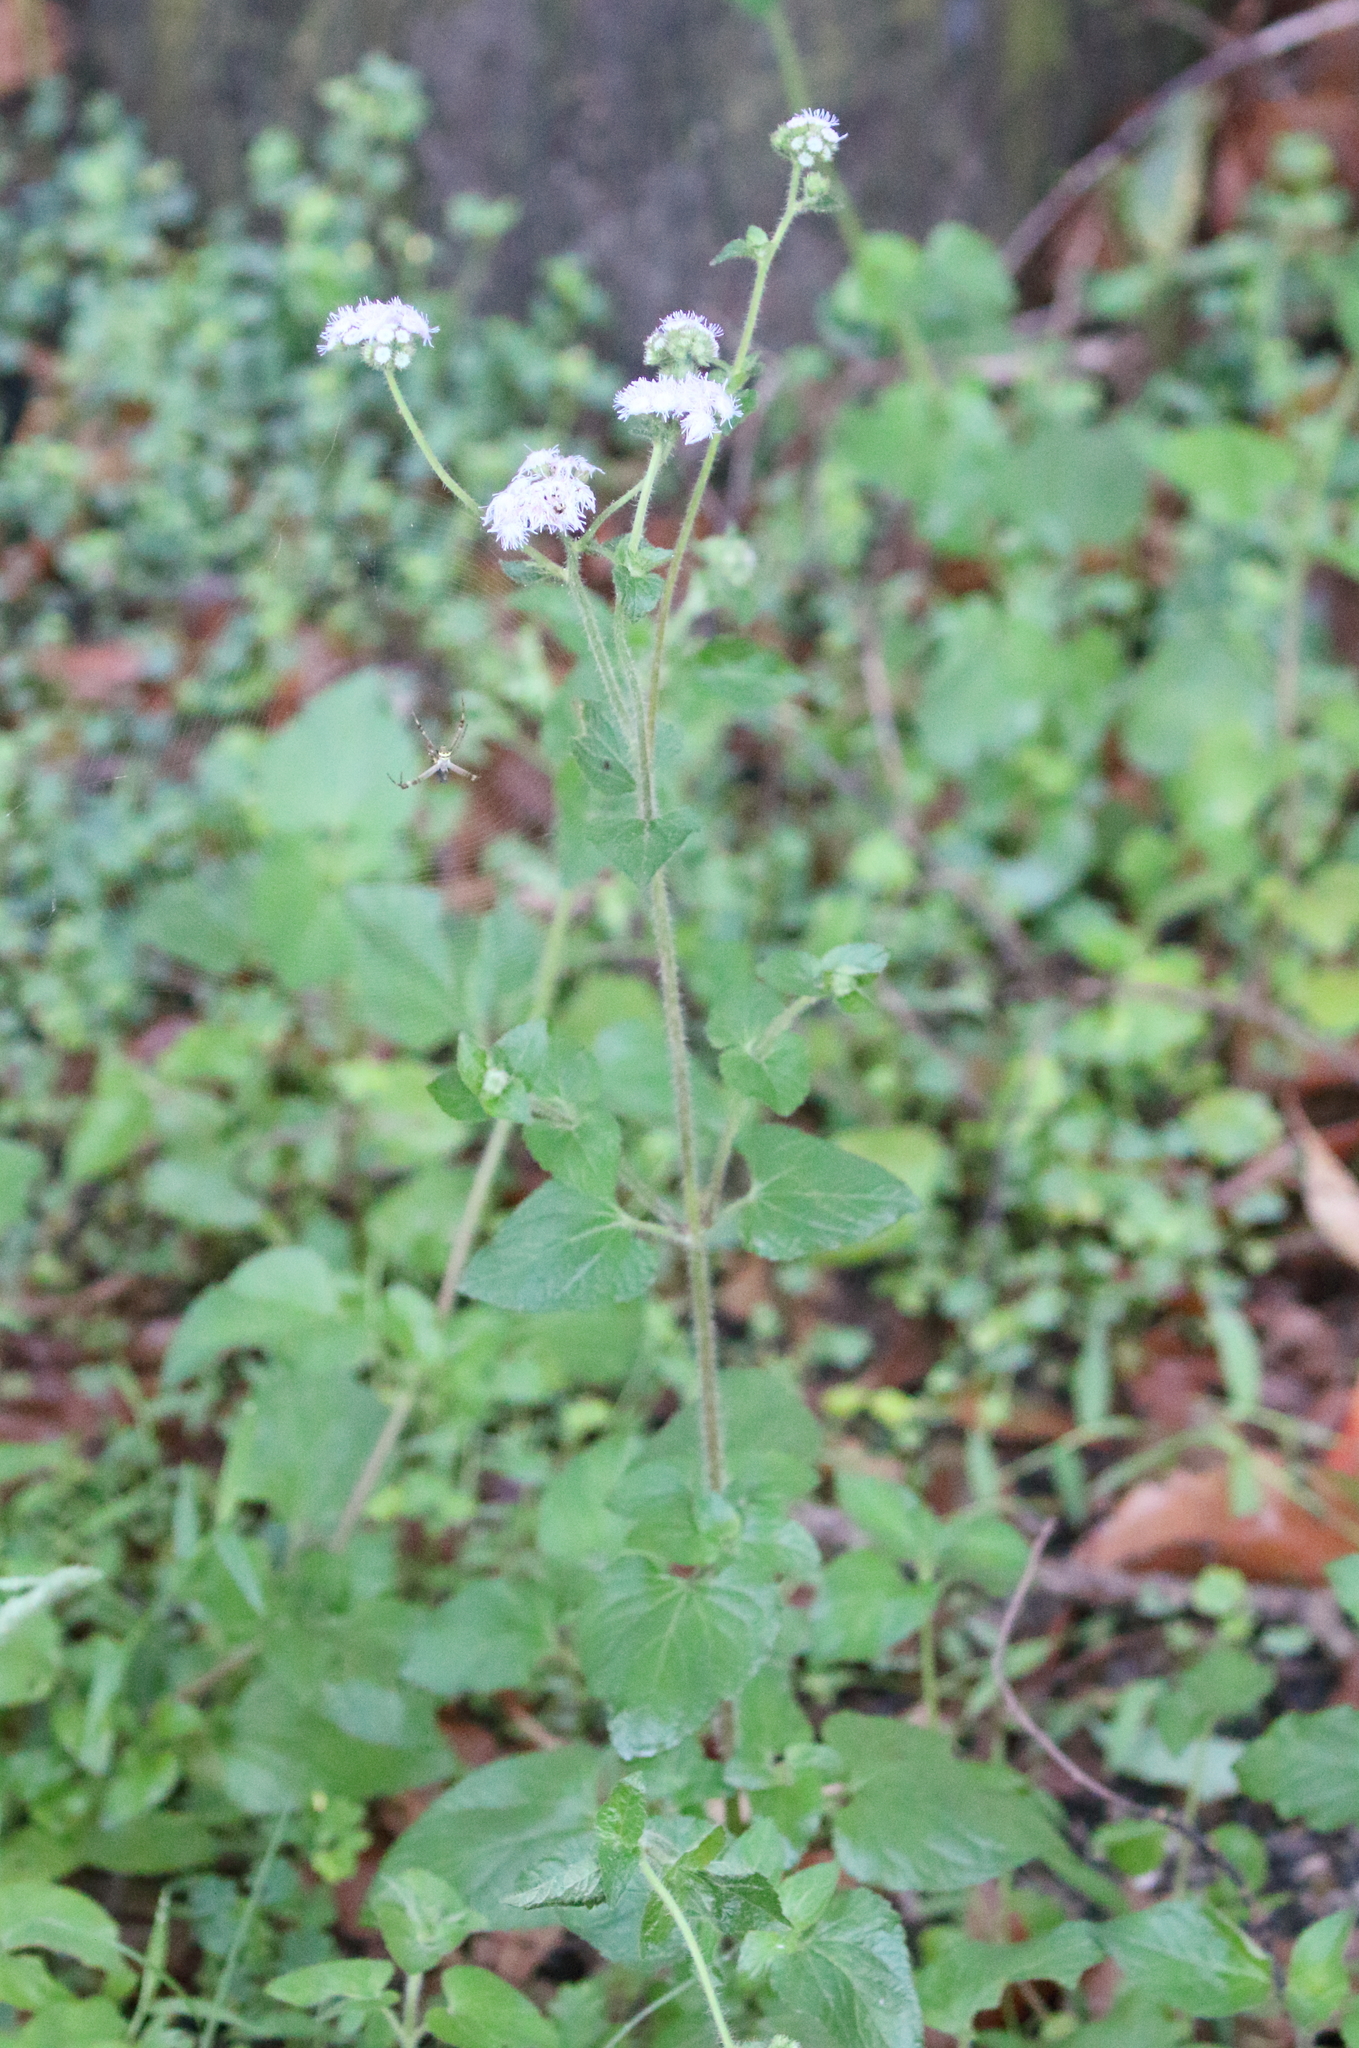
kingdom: Plantae
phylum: Tracheophyta
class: Magnoliopsida
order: Asterales
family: Asteraceae
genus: Ageratum
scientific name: Ageratum houstonianum
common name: Bluemink
